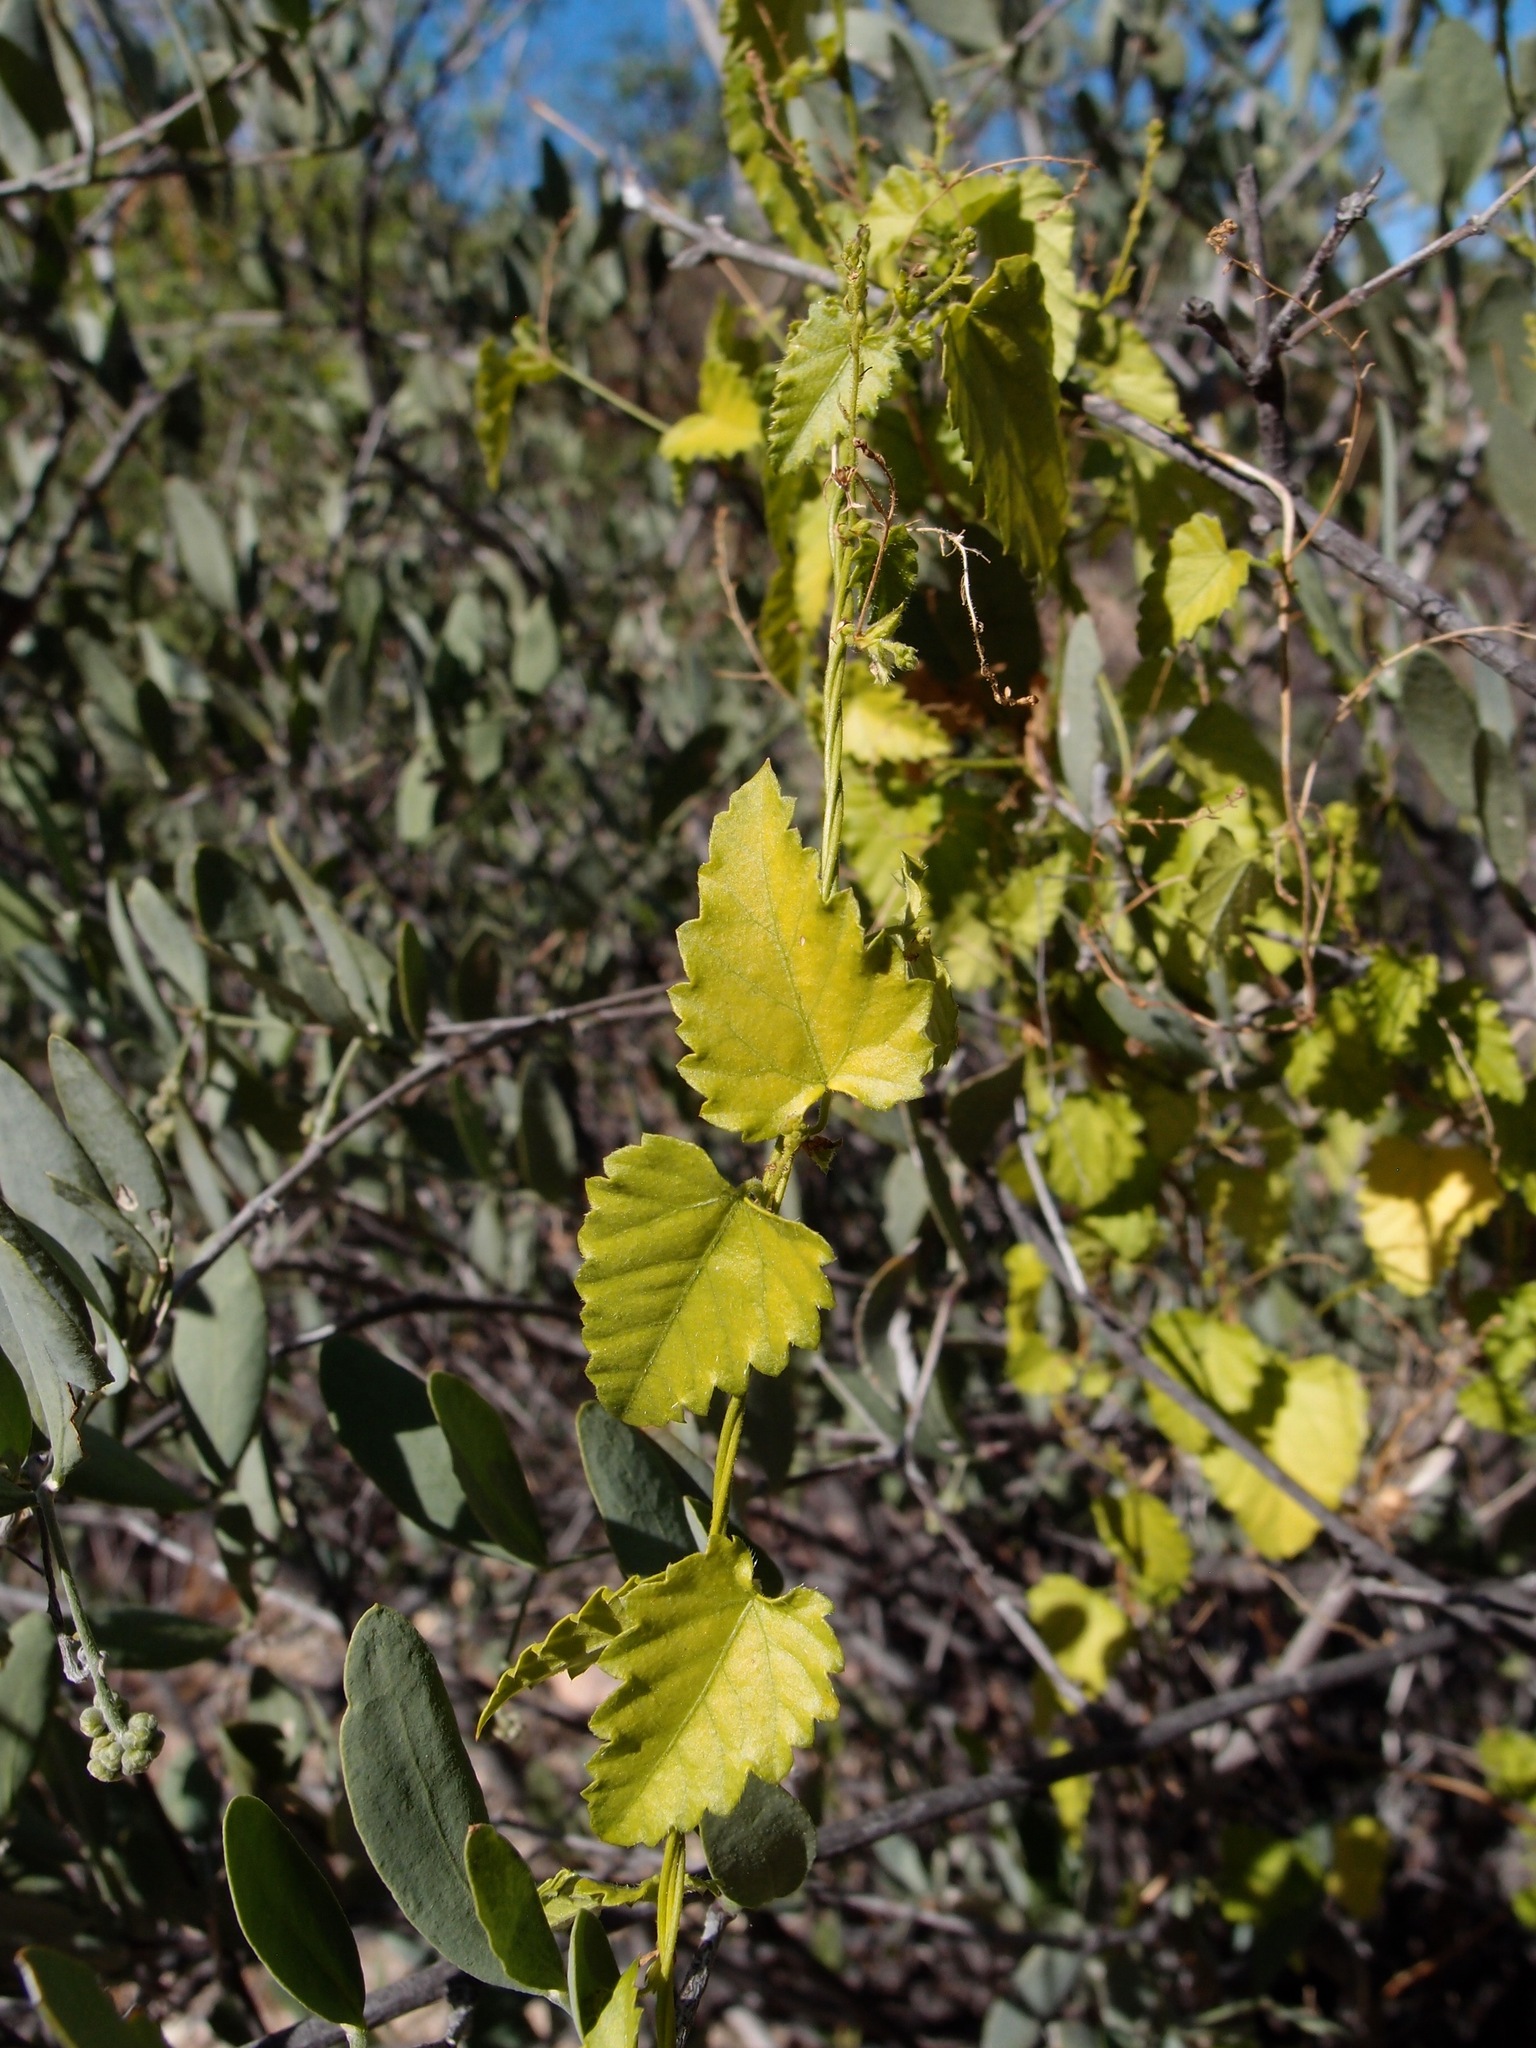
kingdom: Plantae
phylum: Tracheophyta
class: Magnoliopsida
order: Malpighiales
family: Euphorbiaceae
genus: Tragia
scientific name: Tragia jonesii
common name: Jones' noseburn
